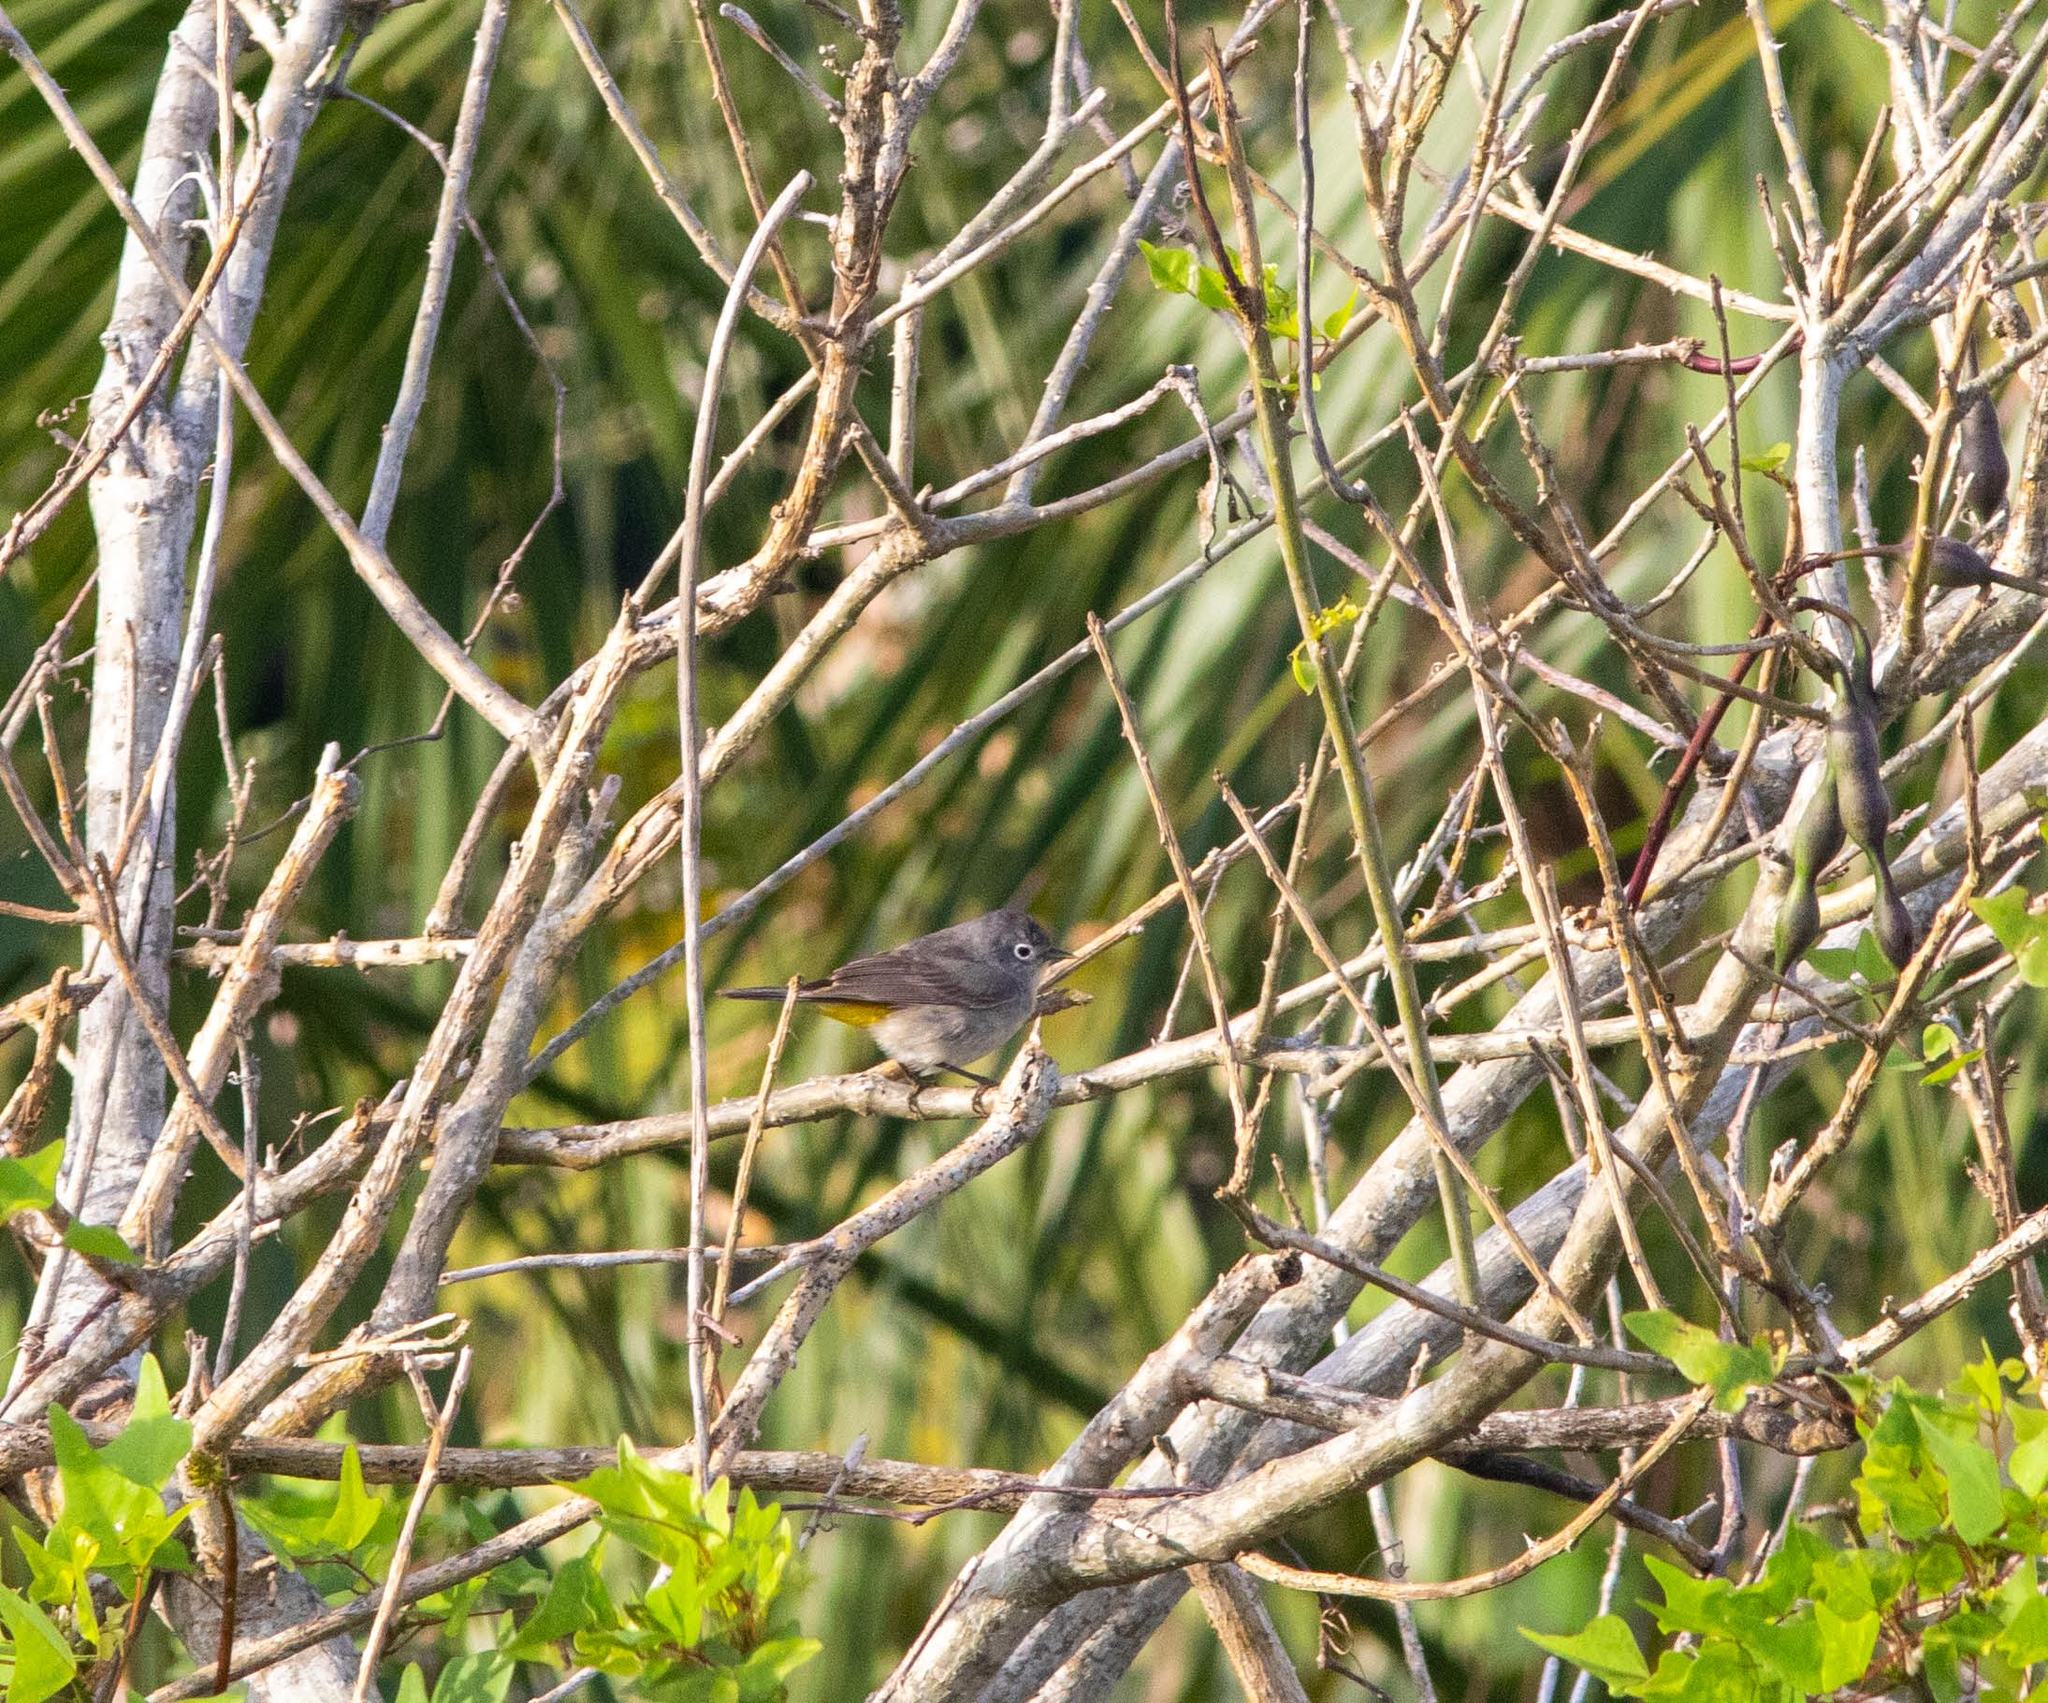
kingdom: Animalia
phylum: Chordata
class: Aves
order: Passeriformes
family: Parulidae
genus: Leiothlypis
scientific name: Leiothlypis virginiae
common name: Virginia's warbler
